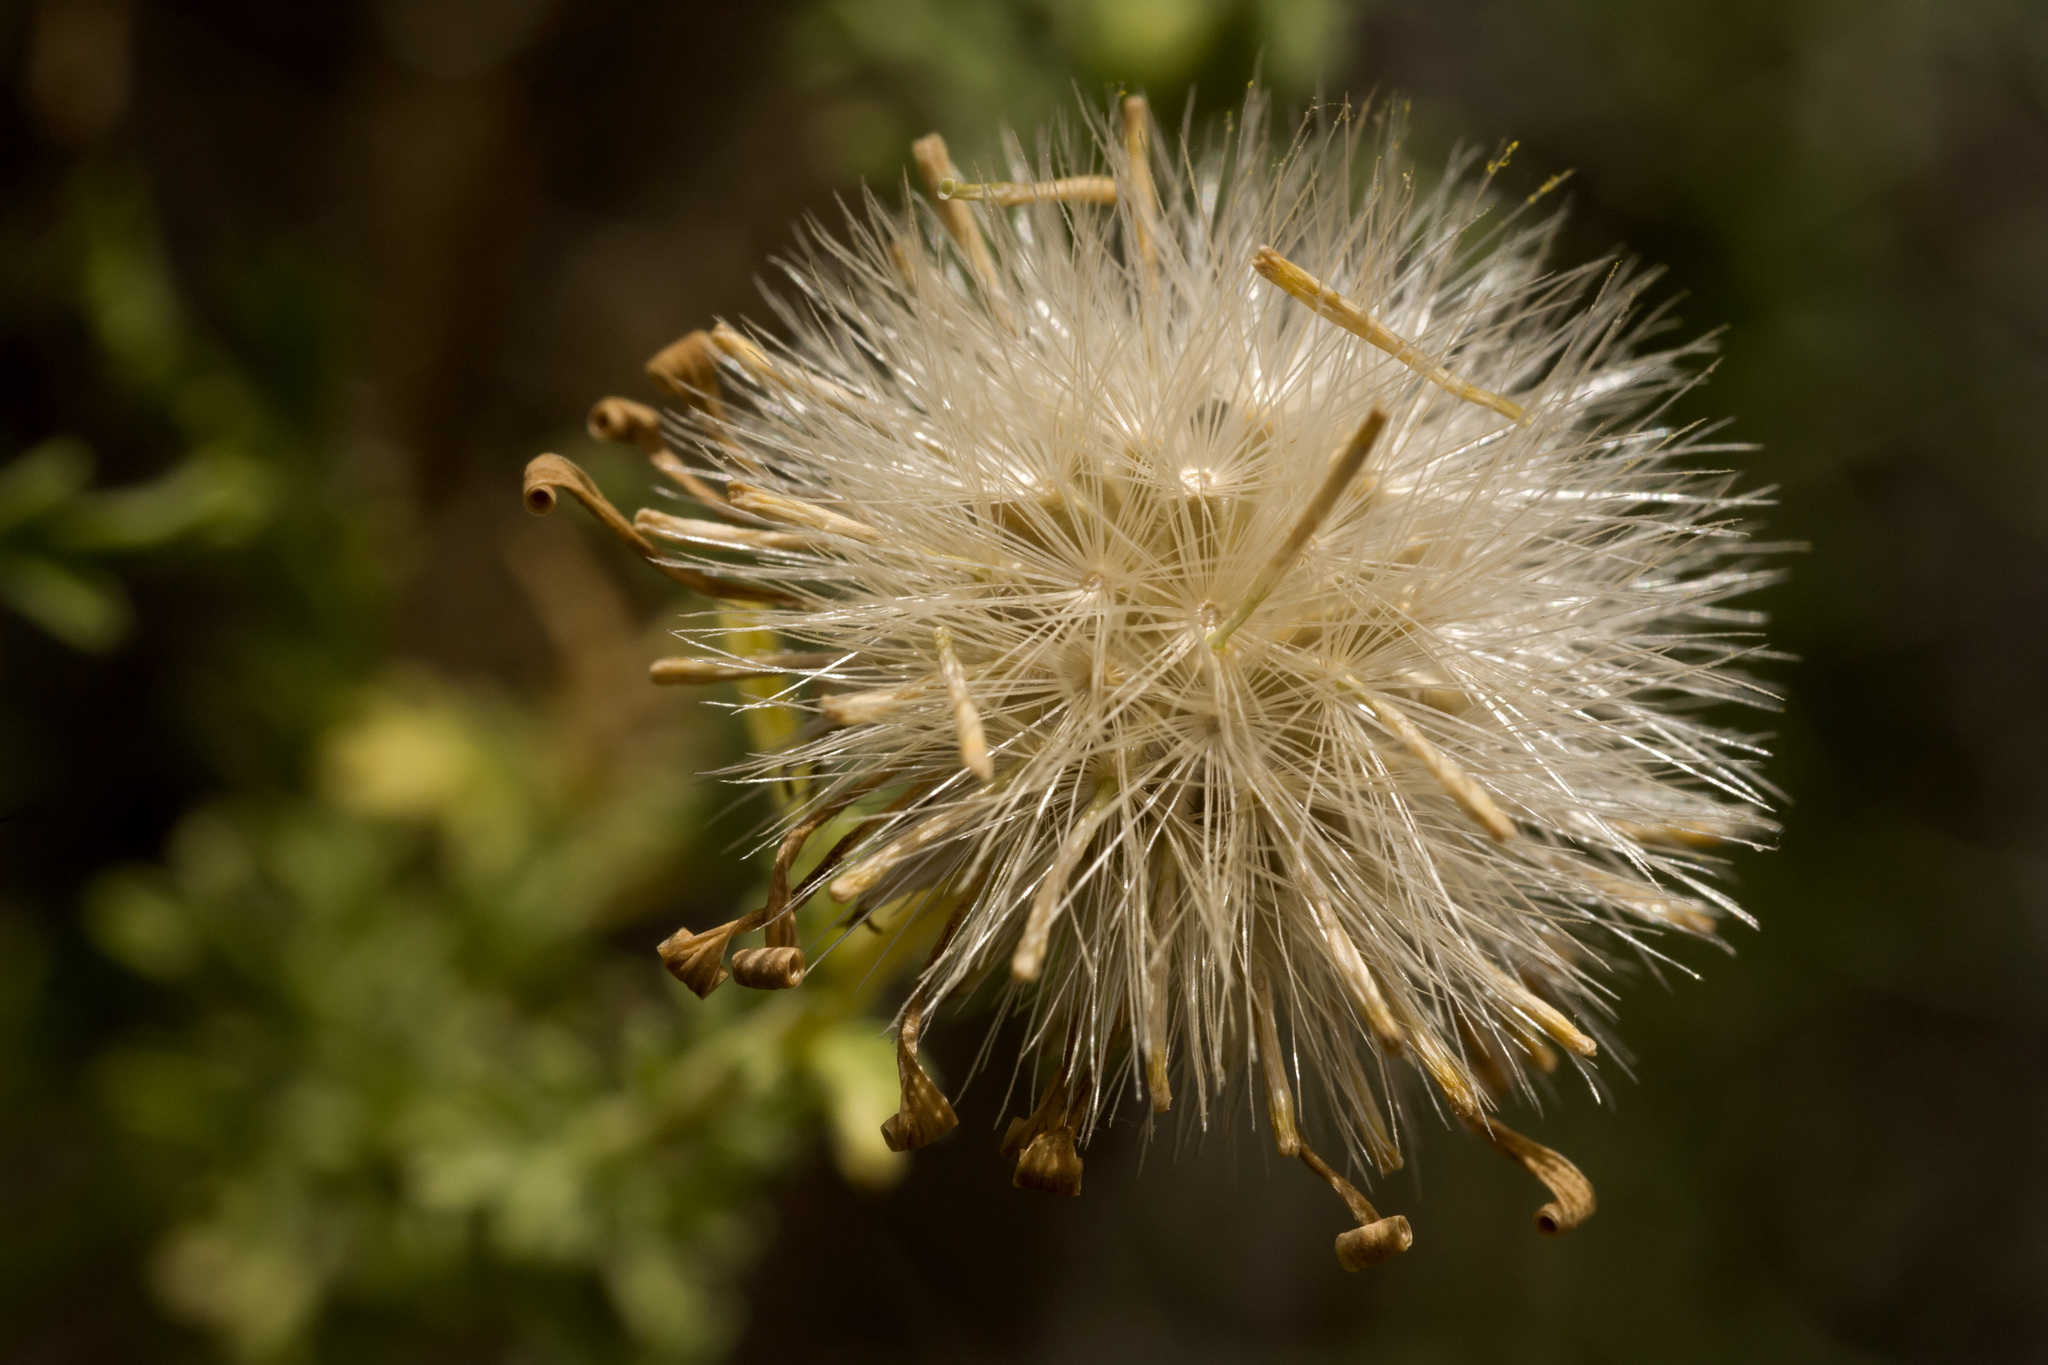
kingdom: Plantae
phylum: Tracheophyta
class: Magnoliopsida
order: Asterales
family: Asteraceae
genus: Machaeranthera
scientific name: Machaeranthera tanacetifolia
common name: Tansy-aster
